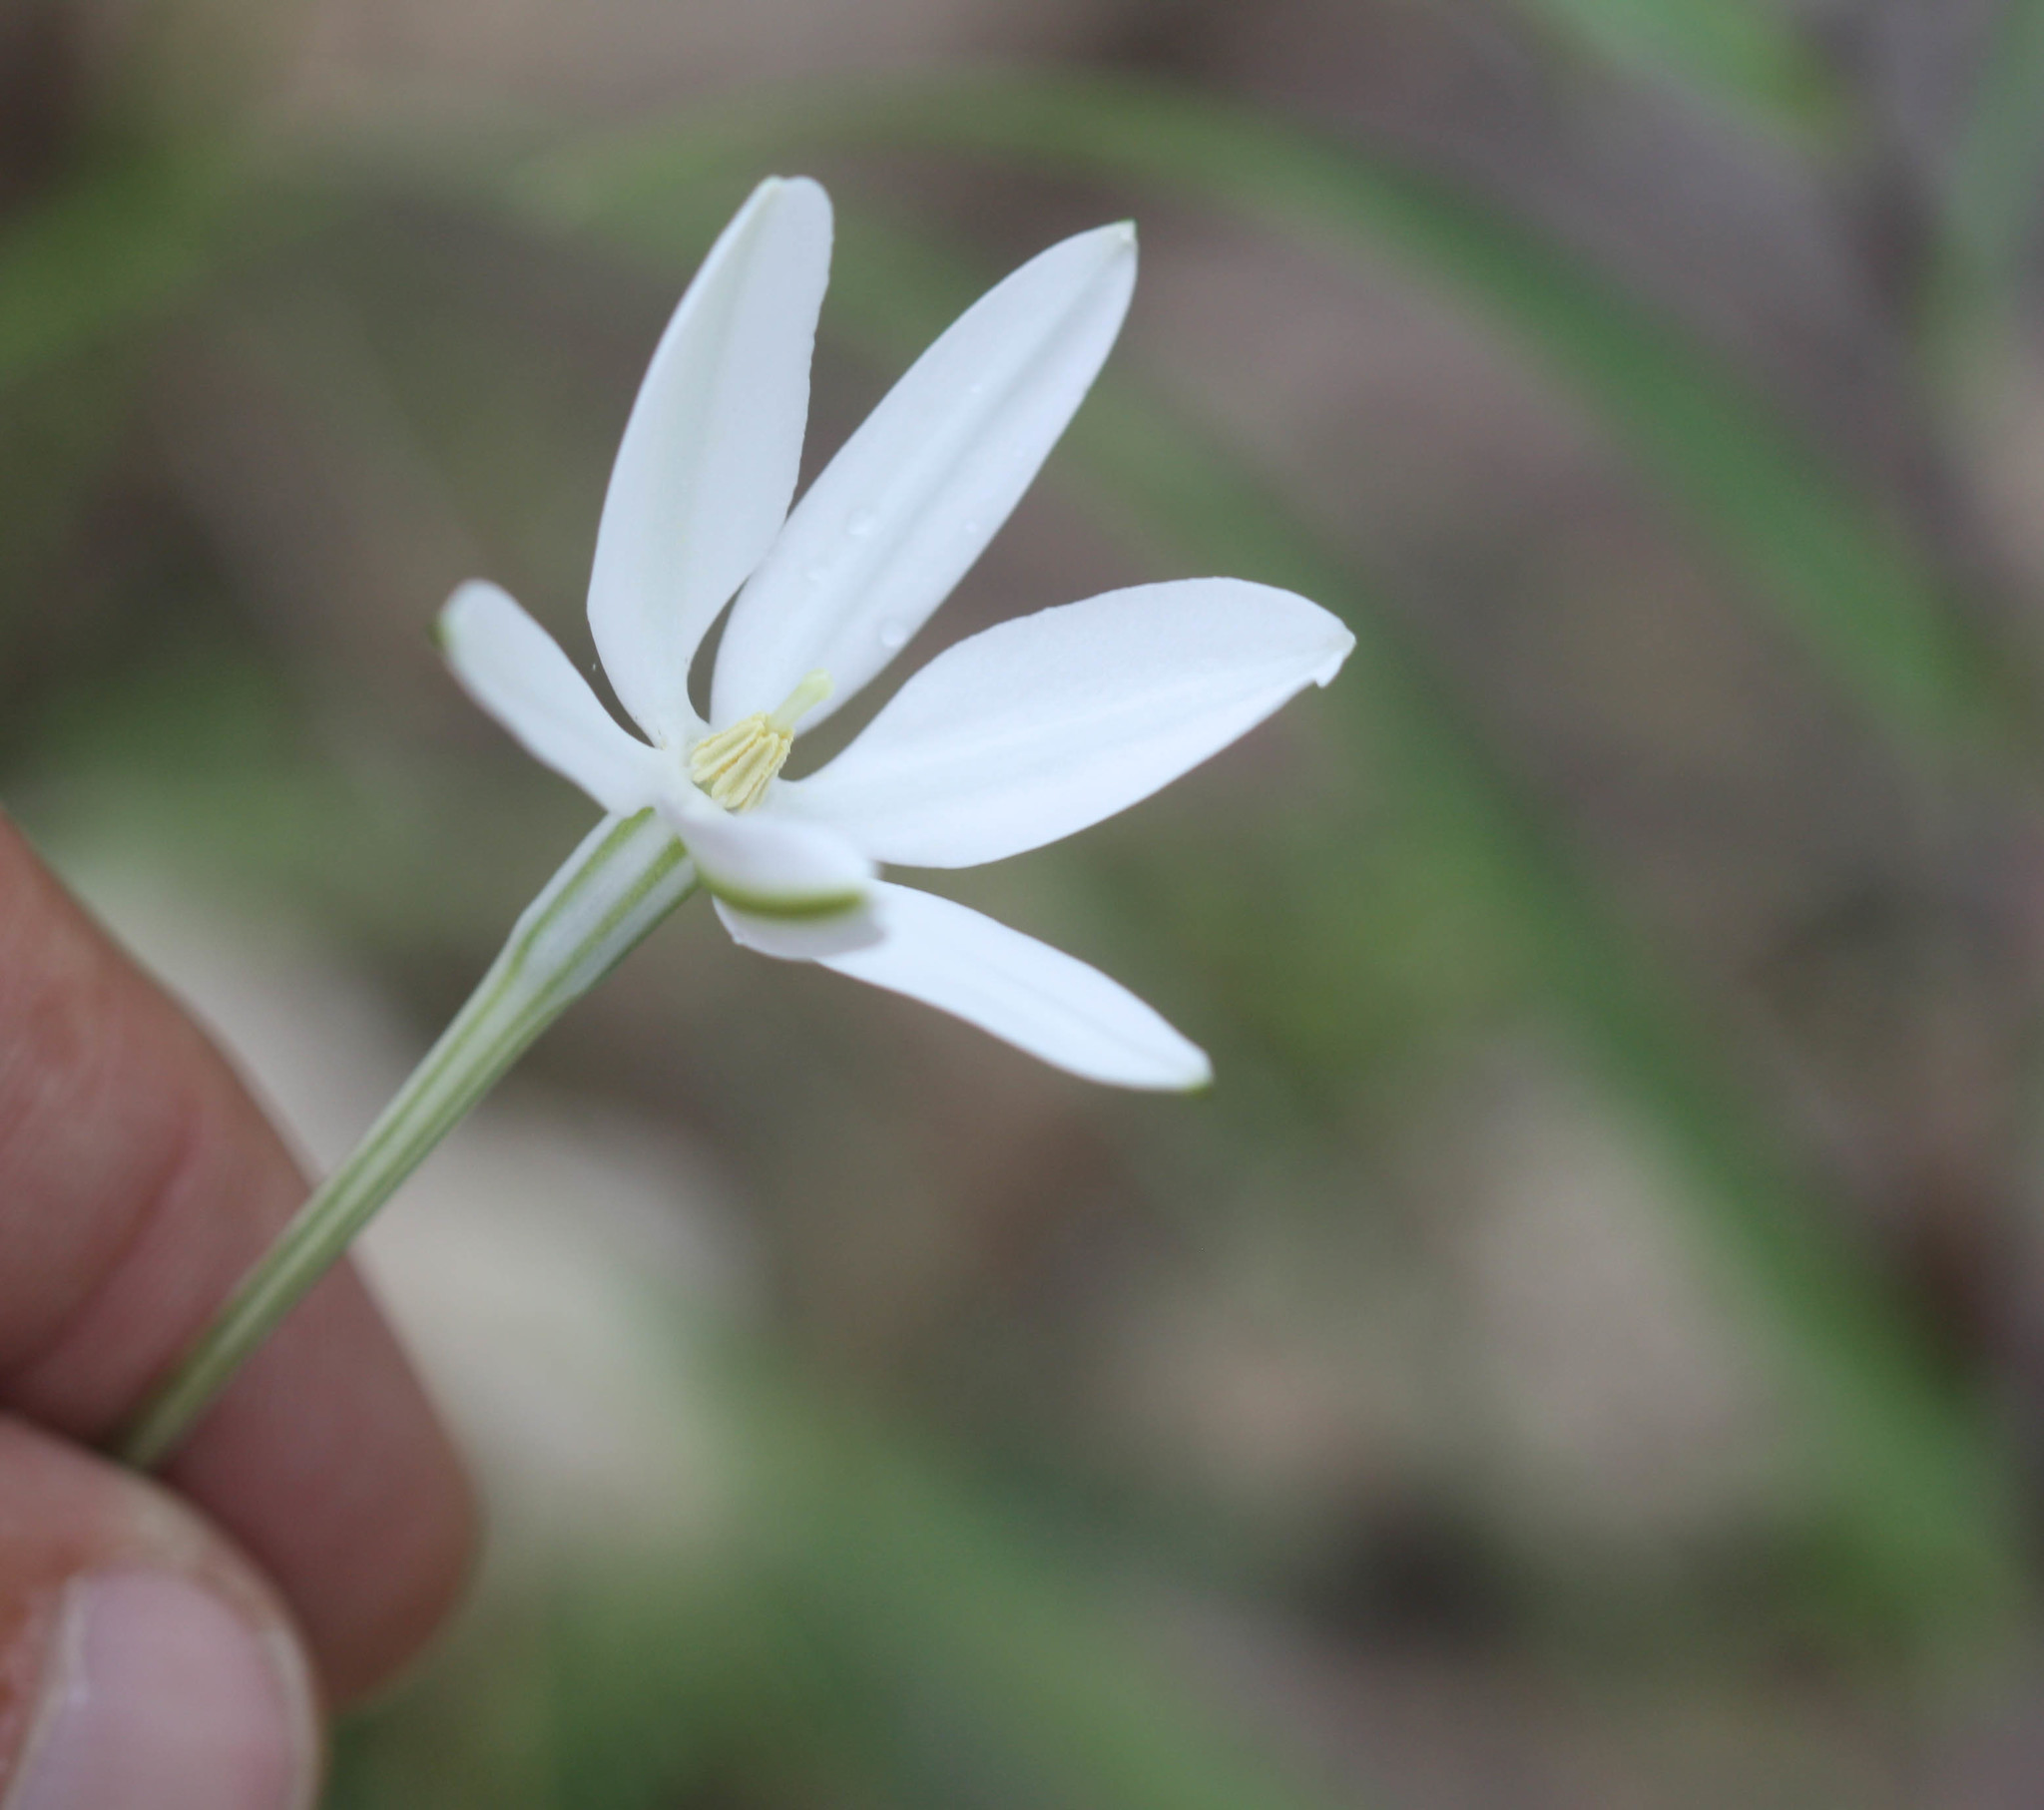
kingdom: Plantae
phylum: Tracheophyta
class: Liliopsida
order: Asparagales
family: Asparagaceae
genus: Milla
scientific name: Milla biflora
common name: Mexican-star
